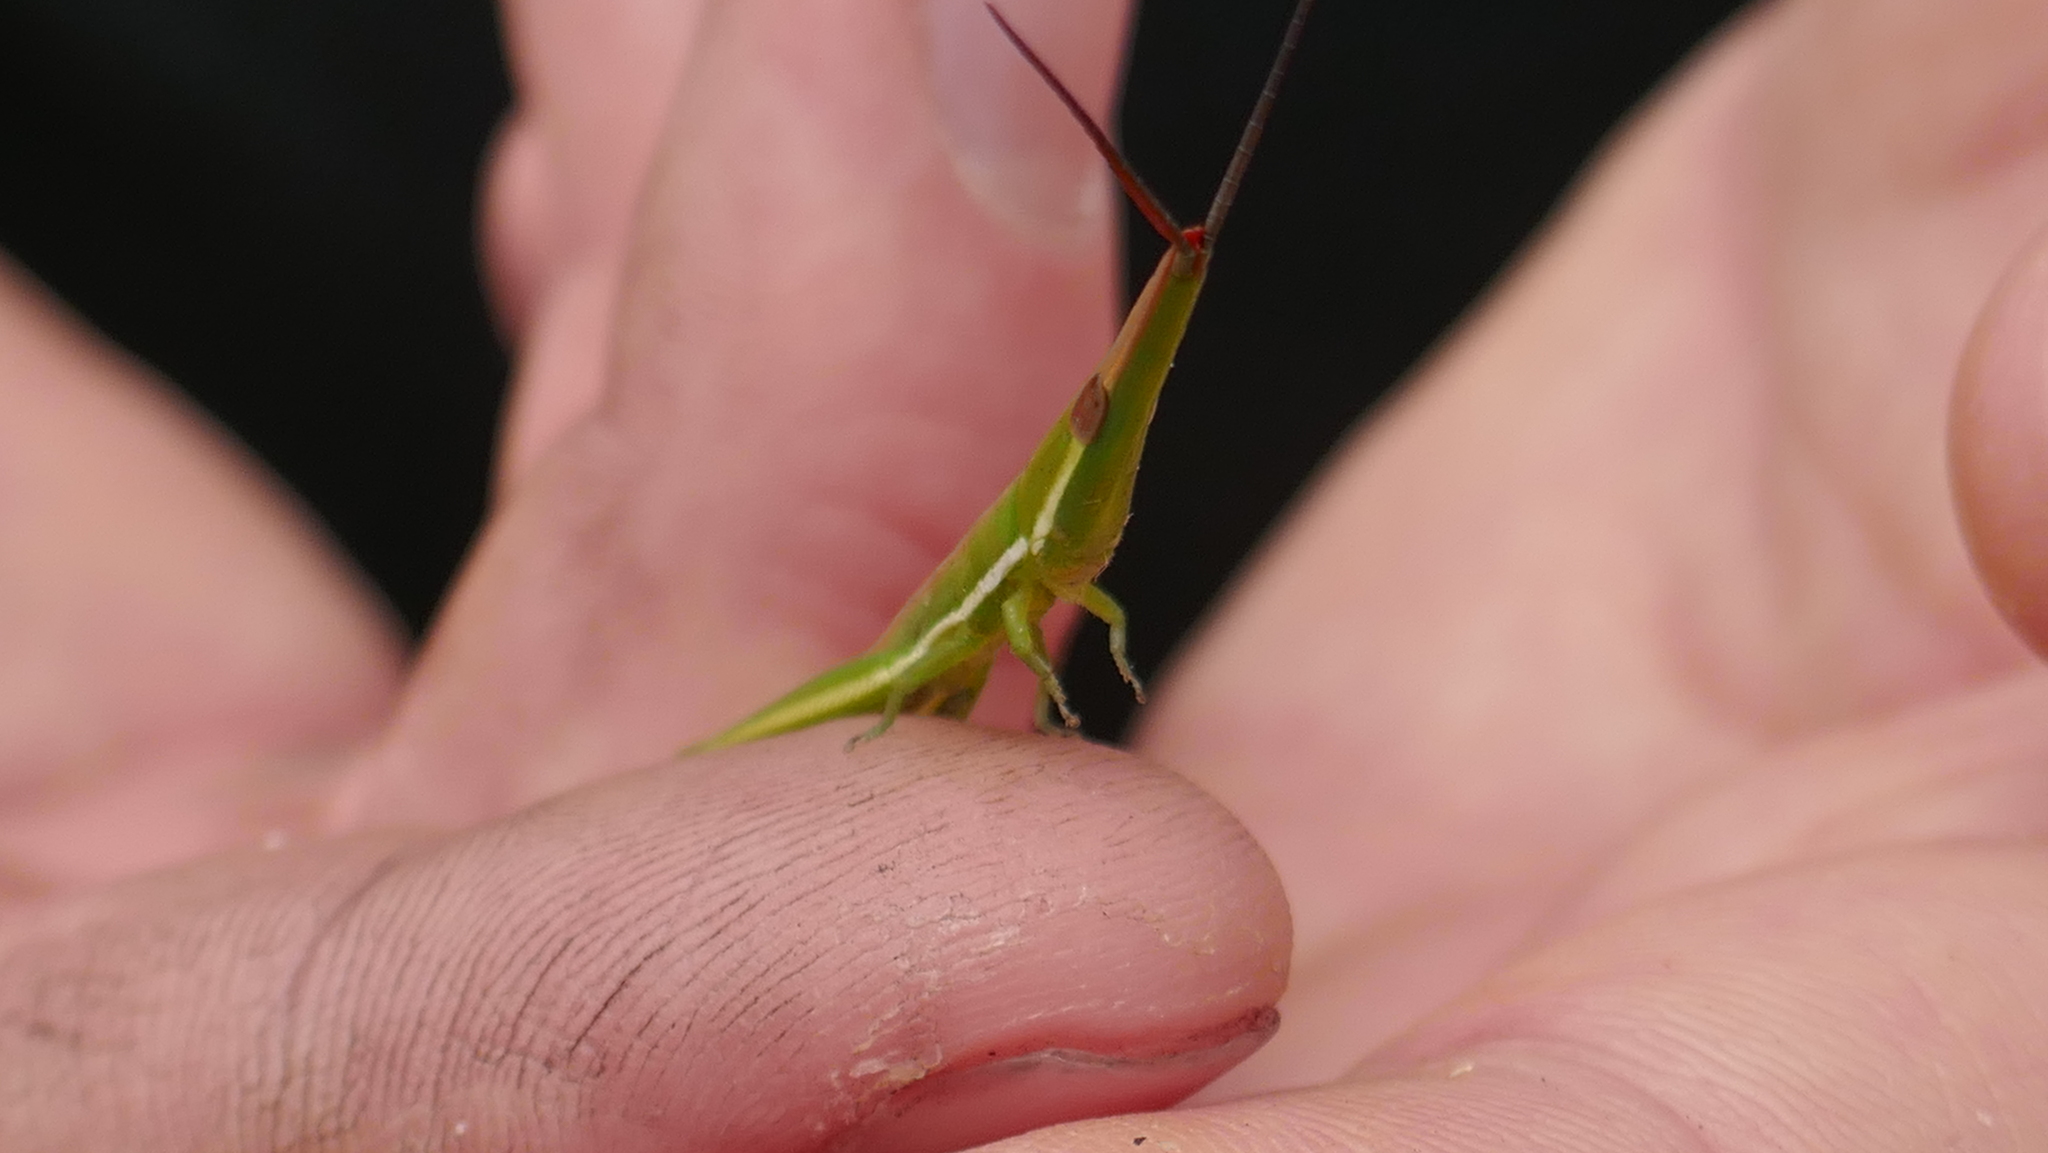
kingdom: Animalia
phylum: Arthropoda
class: Insecta
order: Orthoptera
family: Pyrgomorphidae
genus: Psednura
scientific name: Psednura pedestris
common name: Common psednura
